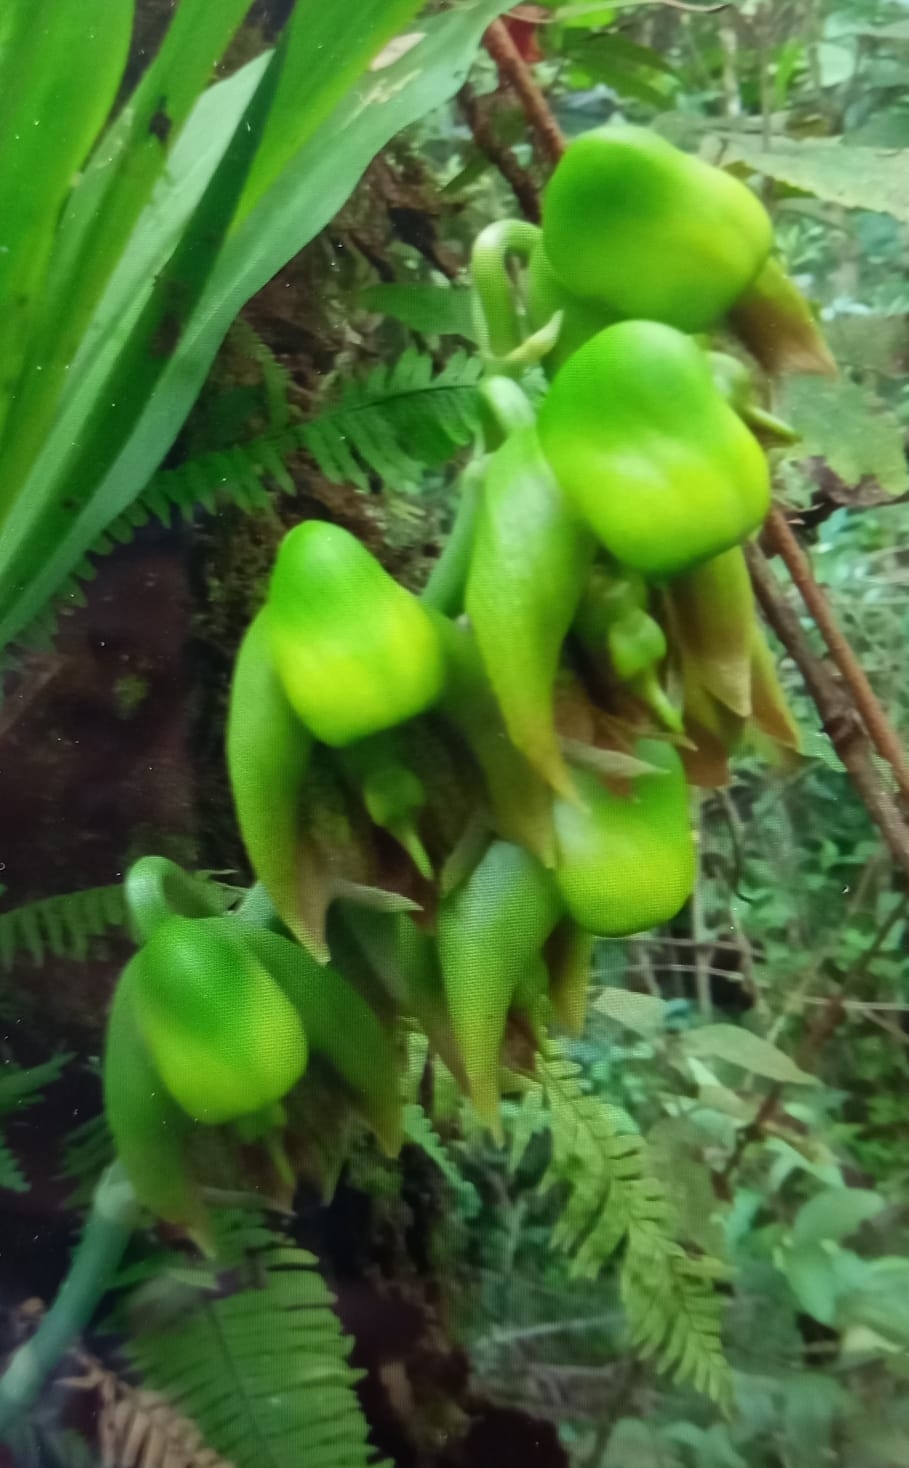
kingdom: Plantae
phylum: Tracheophyta
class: Liliopsida
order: Asparagales
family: Orchidaceae
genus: Catasetum
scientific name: Catasetum integerrimum
